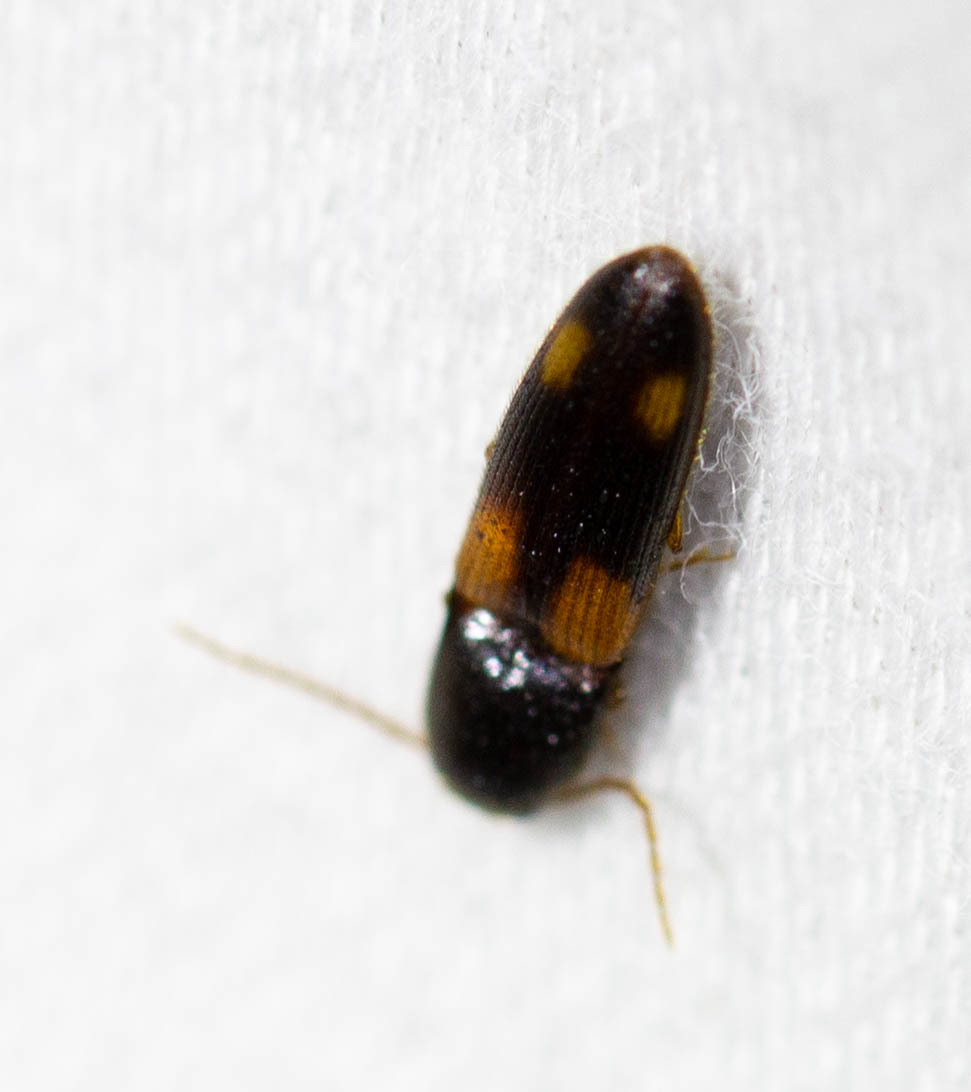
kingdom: Animalia
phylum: Arthropoda
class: Insecta
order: Coleoptera
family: Elateridae
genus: Anchastus
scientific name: Anchastus binus
